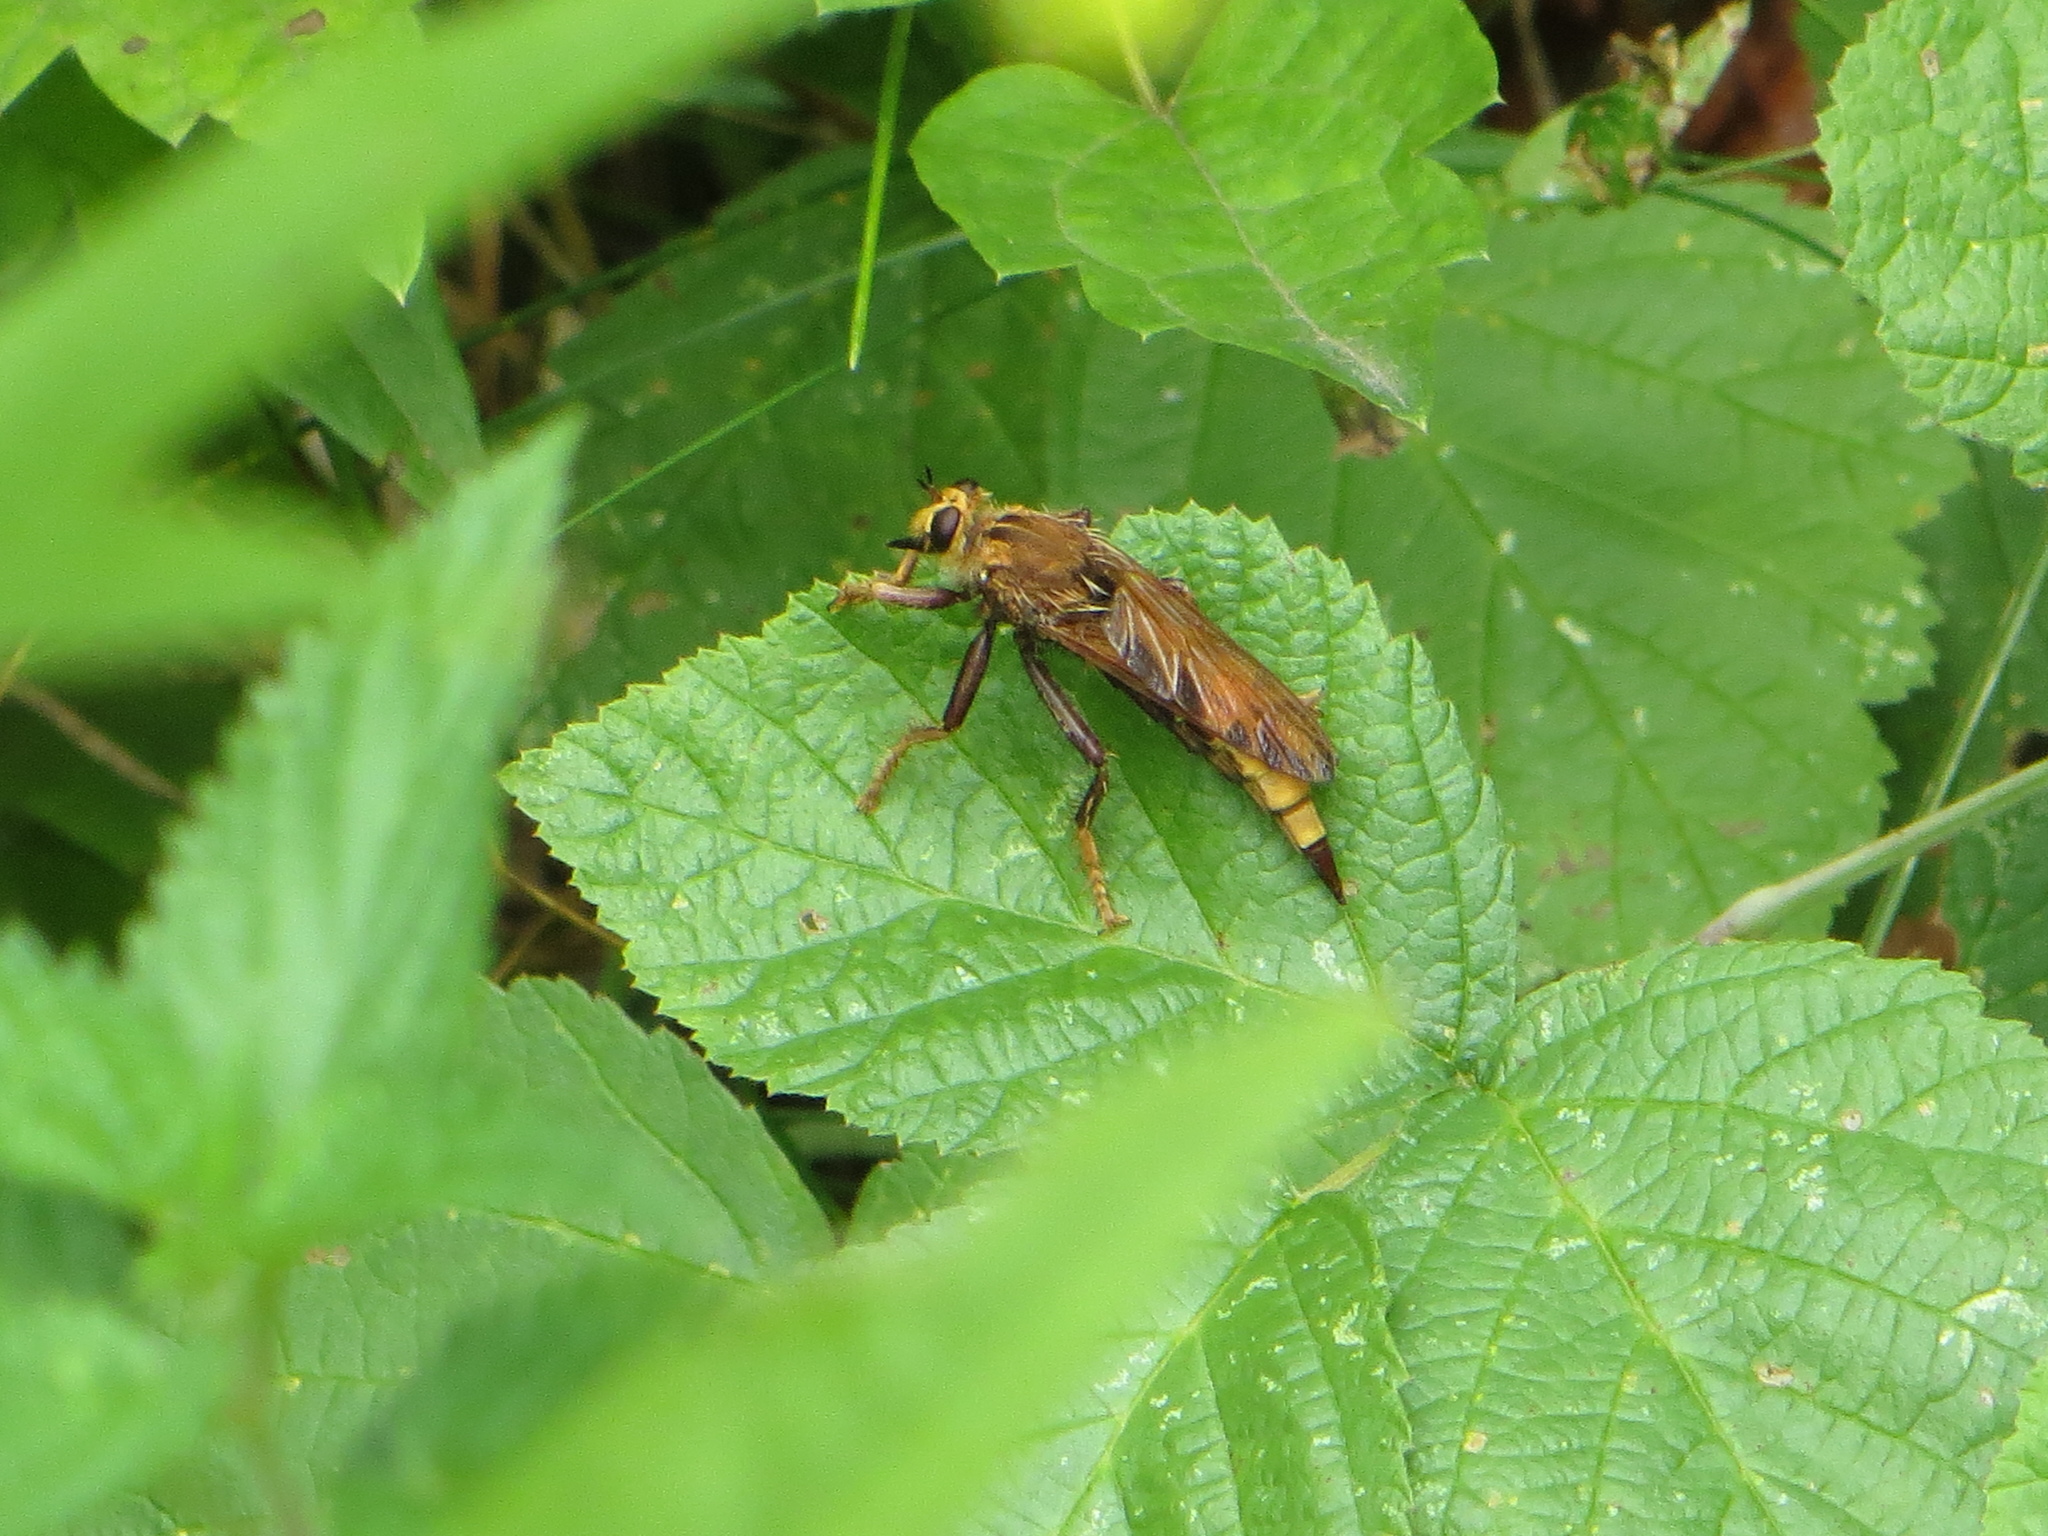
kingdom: Animalia
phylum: Arthropoda
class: Insecta
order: Diptera
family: Asilidae
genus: Asilus
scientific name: Asilus crabroniformis
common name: Hornet robberfly
